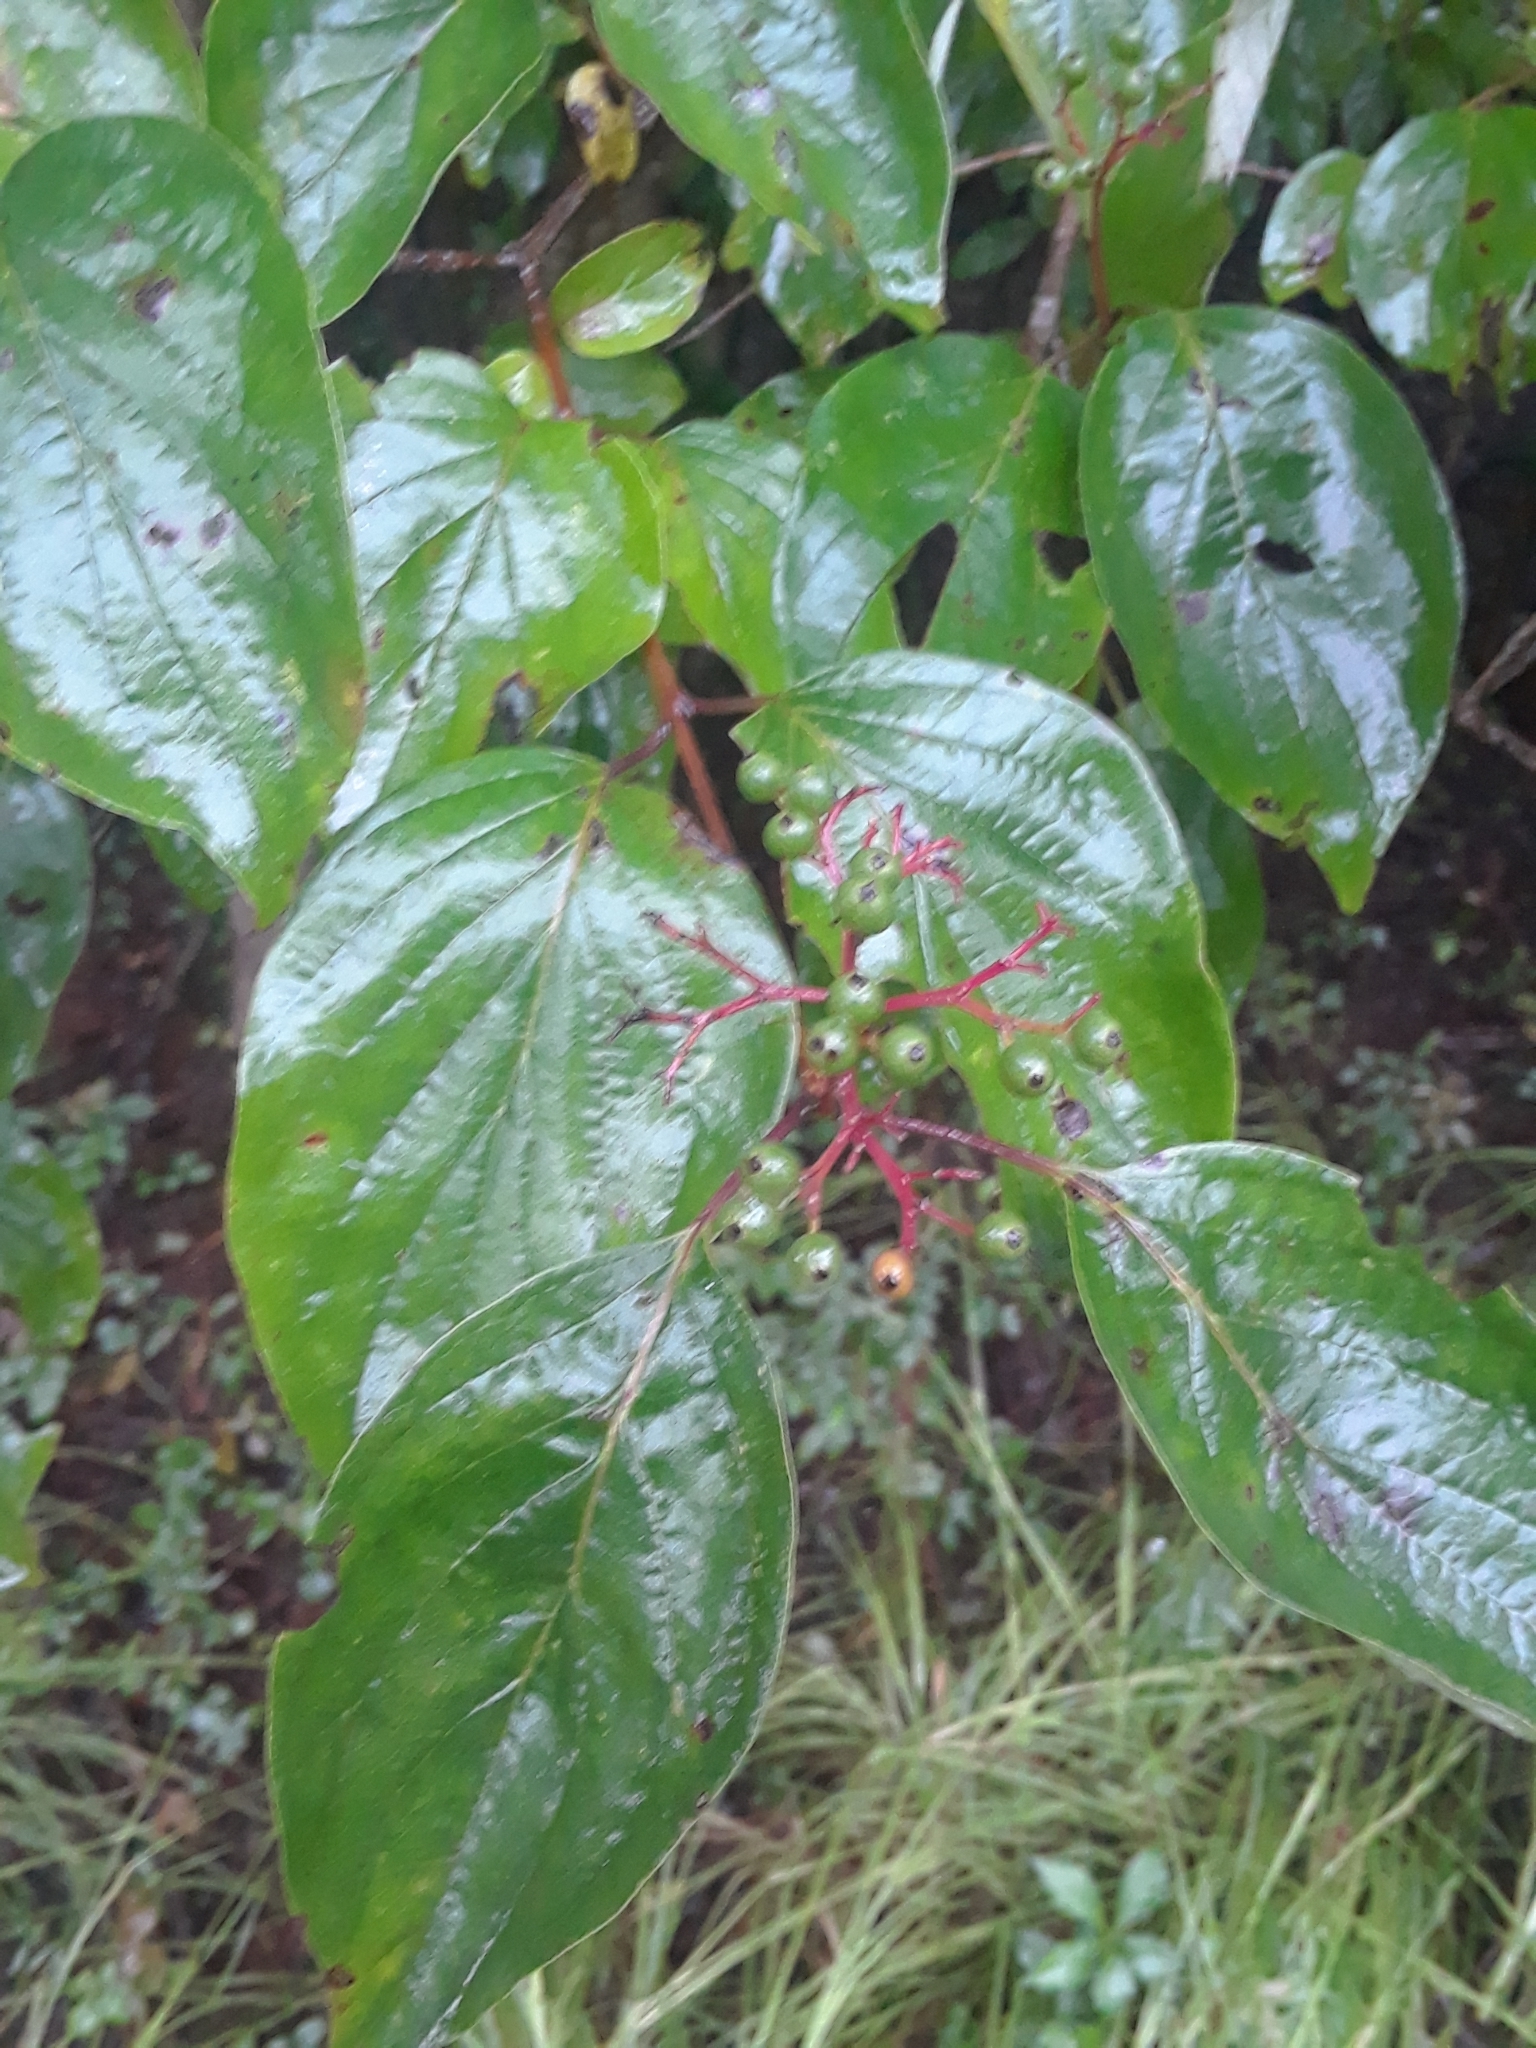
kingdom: Plantae
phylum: Tracheophyta
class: Magnoliopsida
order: Cornales
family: Cornaceae
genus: Cornus
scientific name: Cornus drummondii
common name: Rough-leaf dogwood
